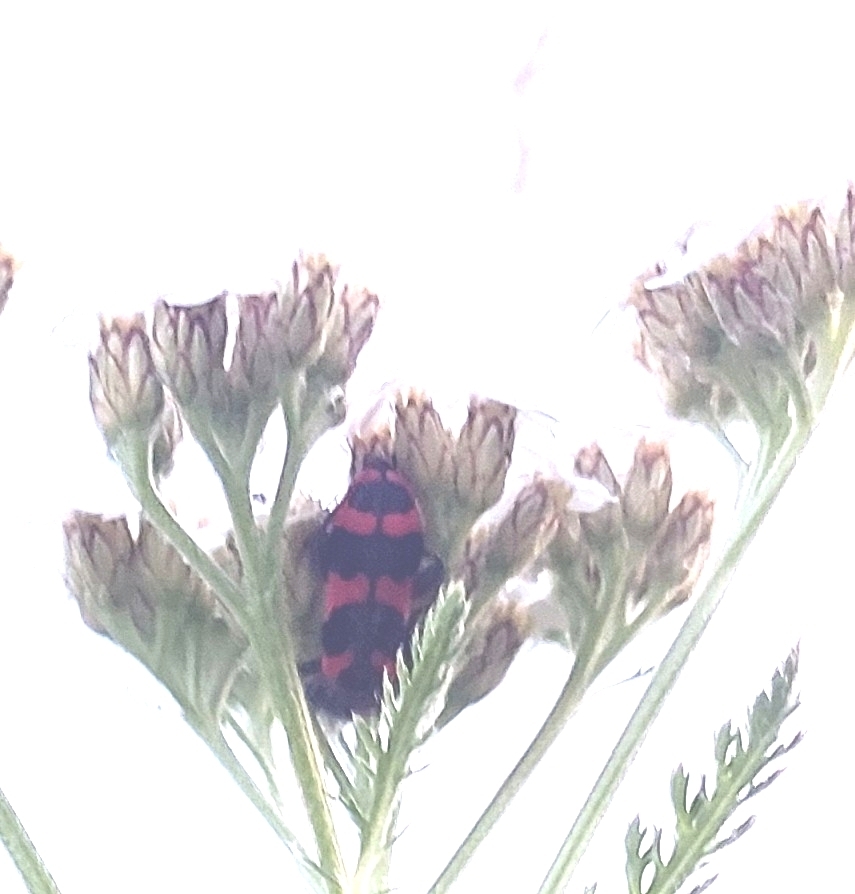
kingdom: Animalia
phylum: Arthropoda
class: Insecta
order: Coleoptera
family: Cleridae
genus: Trichodes
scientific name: Trichodes alvearius
